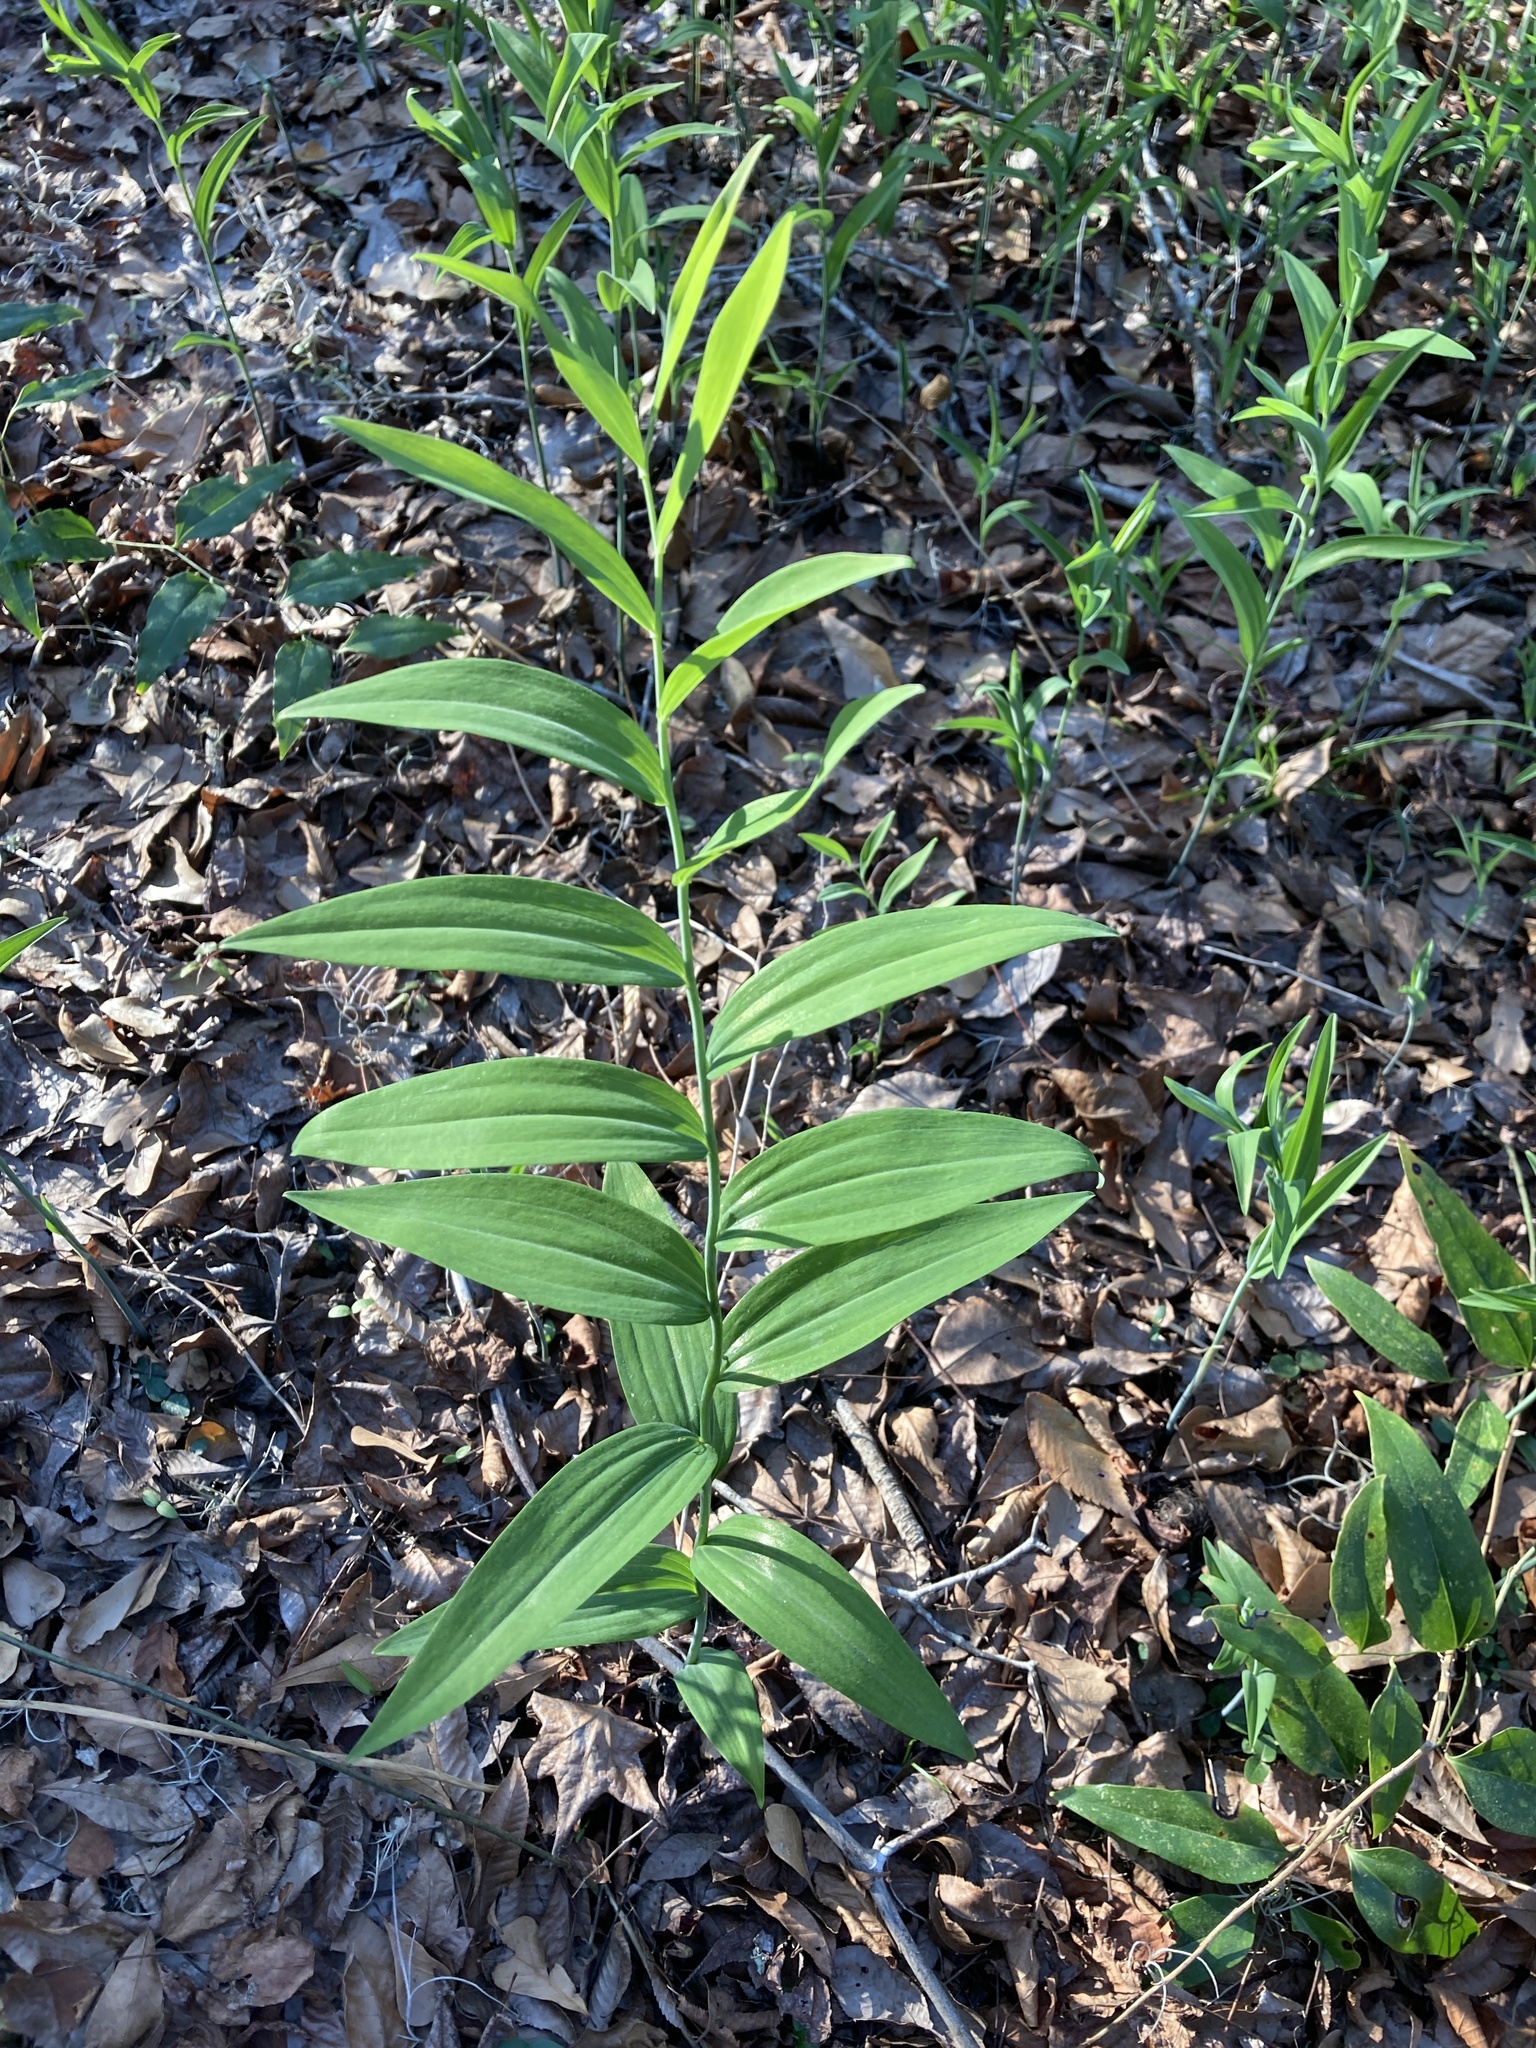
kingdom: Plantae
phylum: Tracheophyta
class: Liliopsida
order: Asparagales
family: Asparagaceae
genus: Polygonatum
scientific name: Polygonatum biflorum
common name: American solomon's-seal
